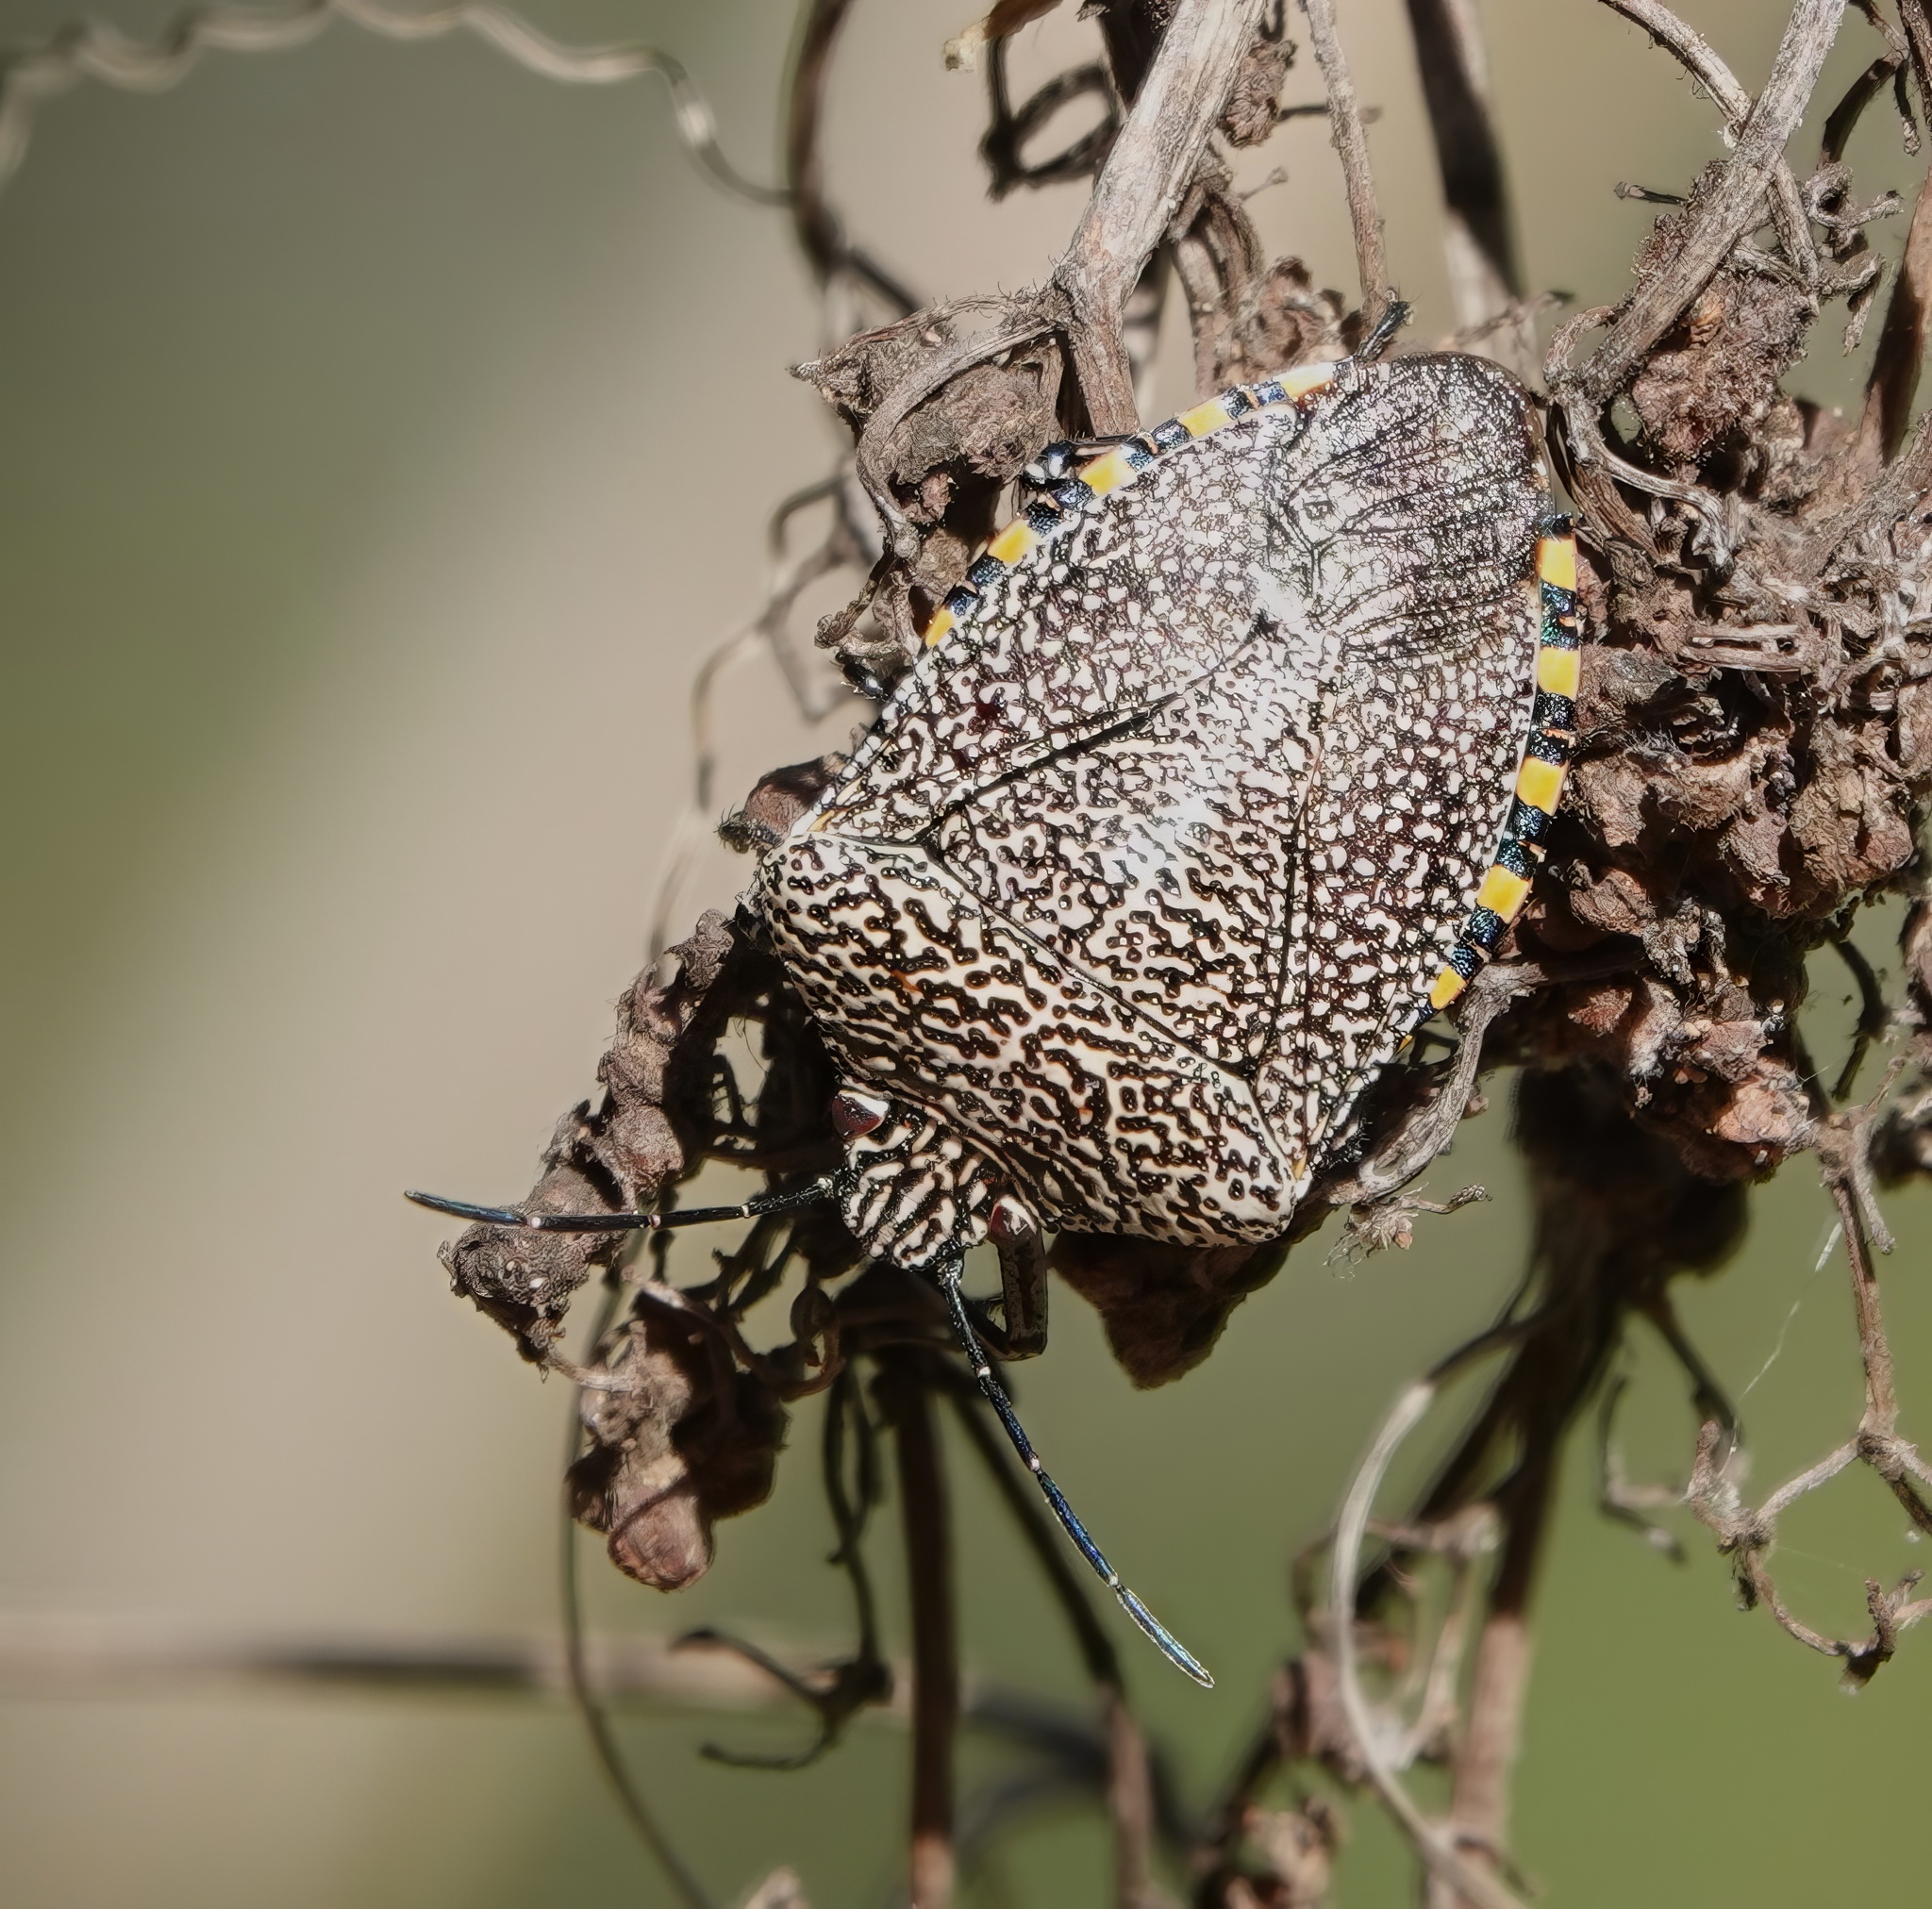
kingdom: Animalia
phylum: Arthropoda
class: Insecta
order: Hemiptera
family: Pentatomidae
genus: Pellaea
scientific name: Pellaea stictica
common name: Stink bug
